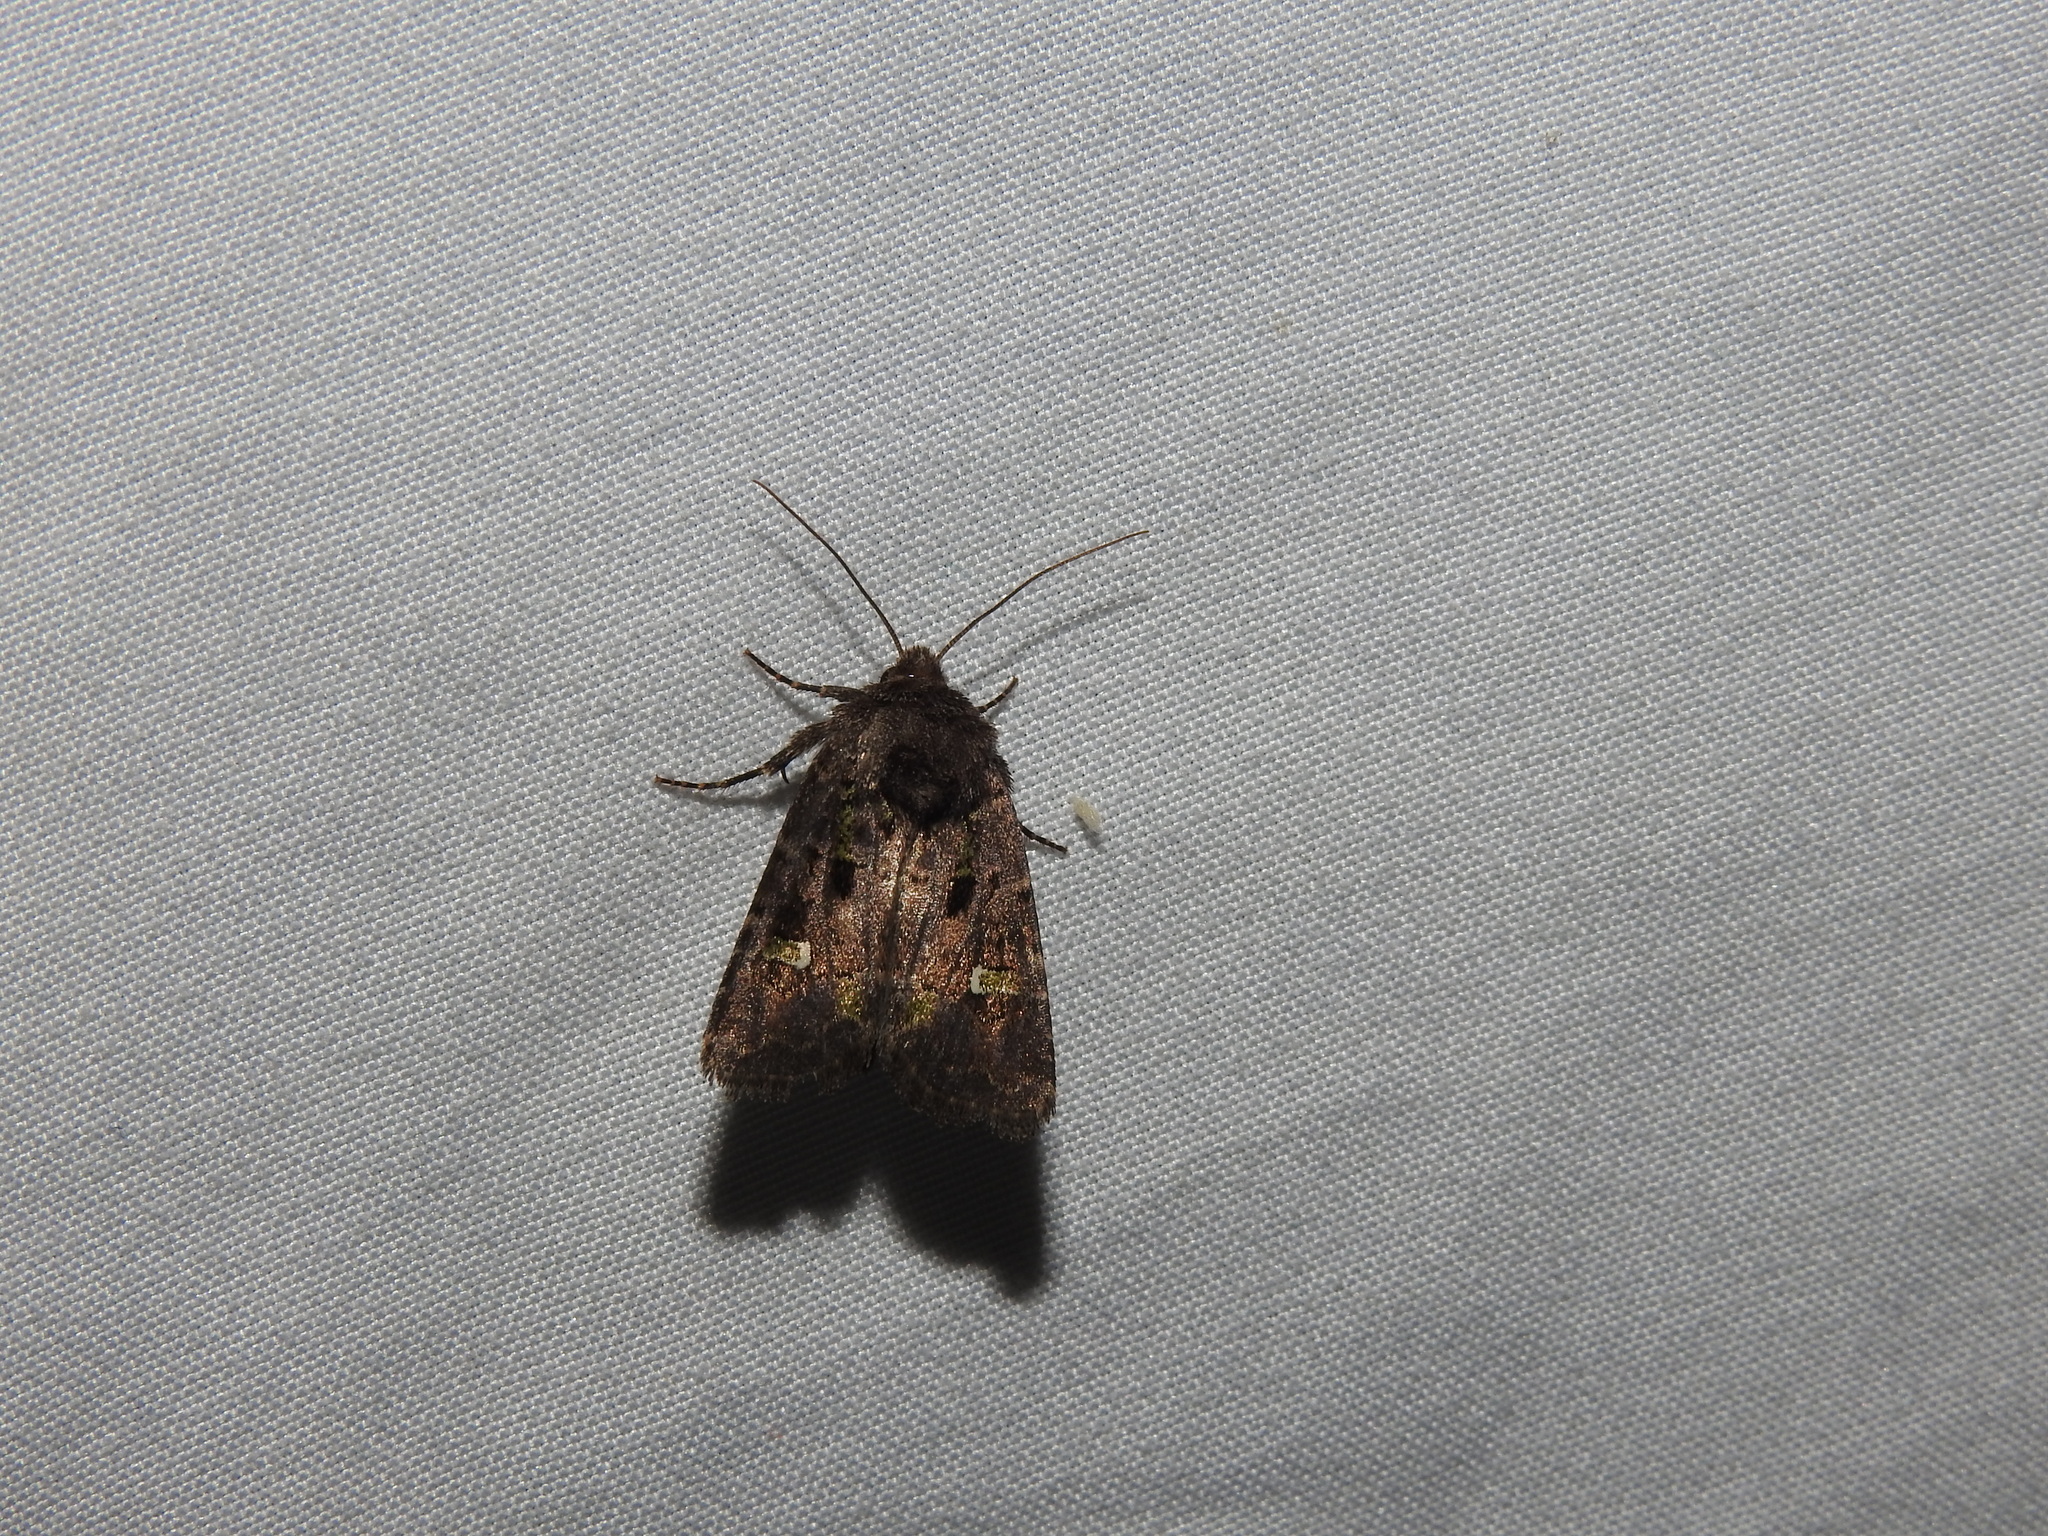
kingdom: Animalia
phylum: Arthropoda
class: Insecta
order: Lepidoptera
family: Noctuidae
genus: Lacinipolia
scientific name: Lacinipolia renigera
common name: Kidney-spotted minor
